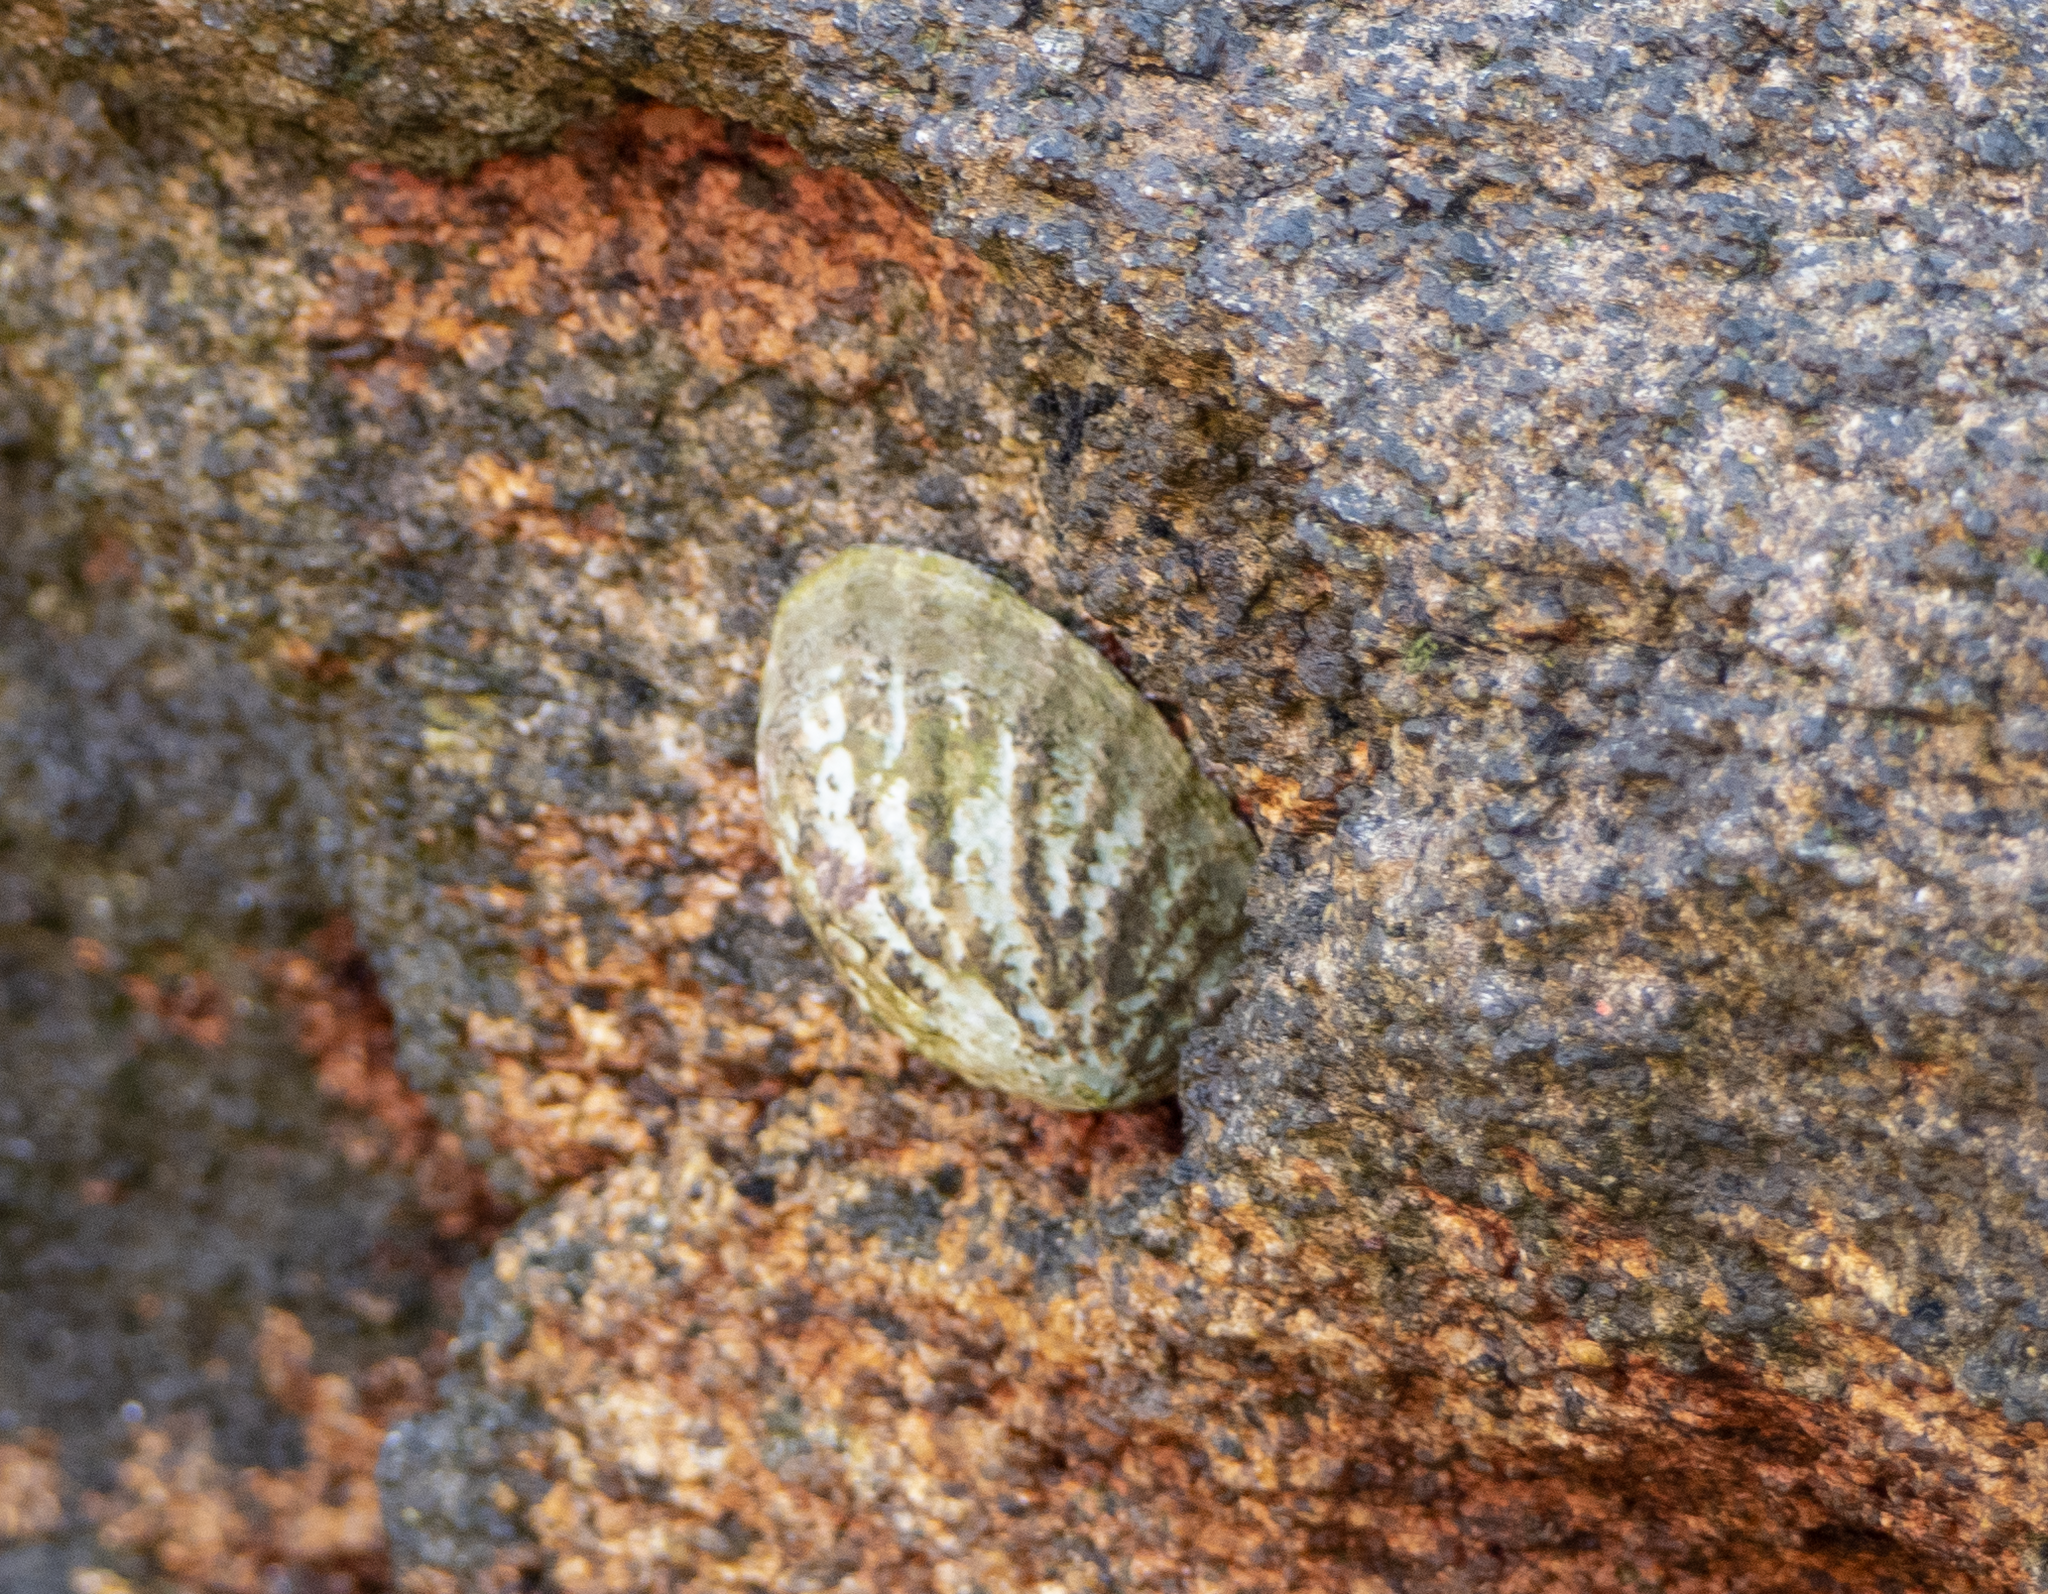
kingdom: Animalia
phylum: Mollusca
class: Gastropoda
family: Nacellidae
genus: Cellana
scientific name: Cellana strigilis
